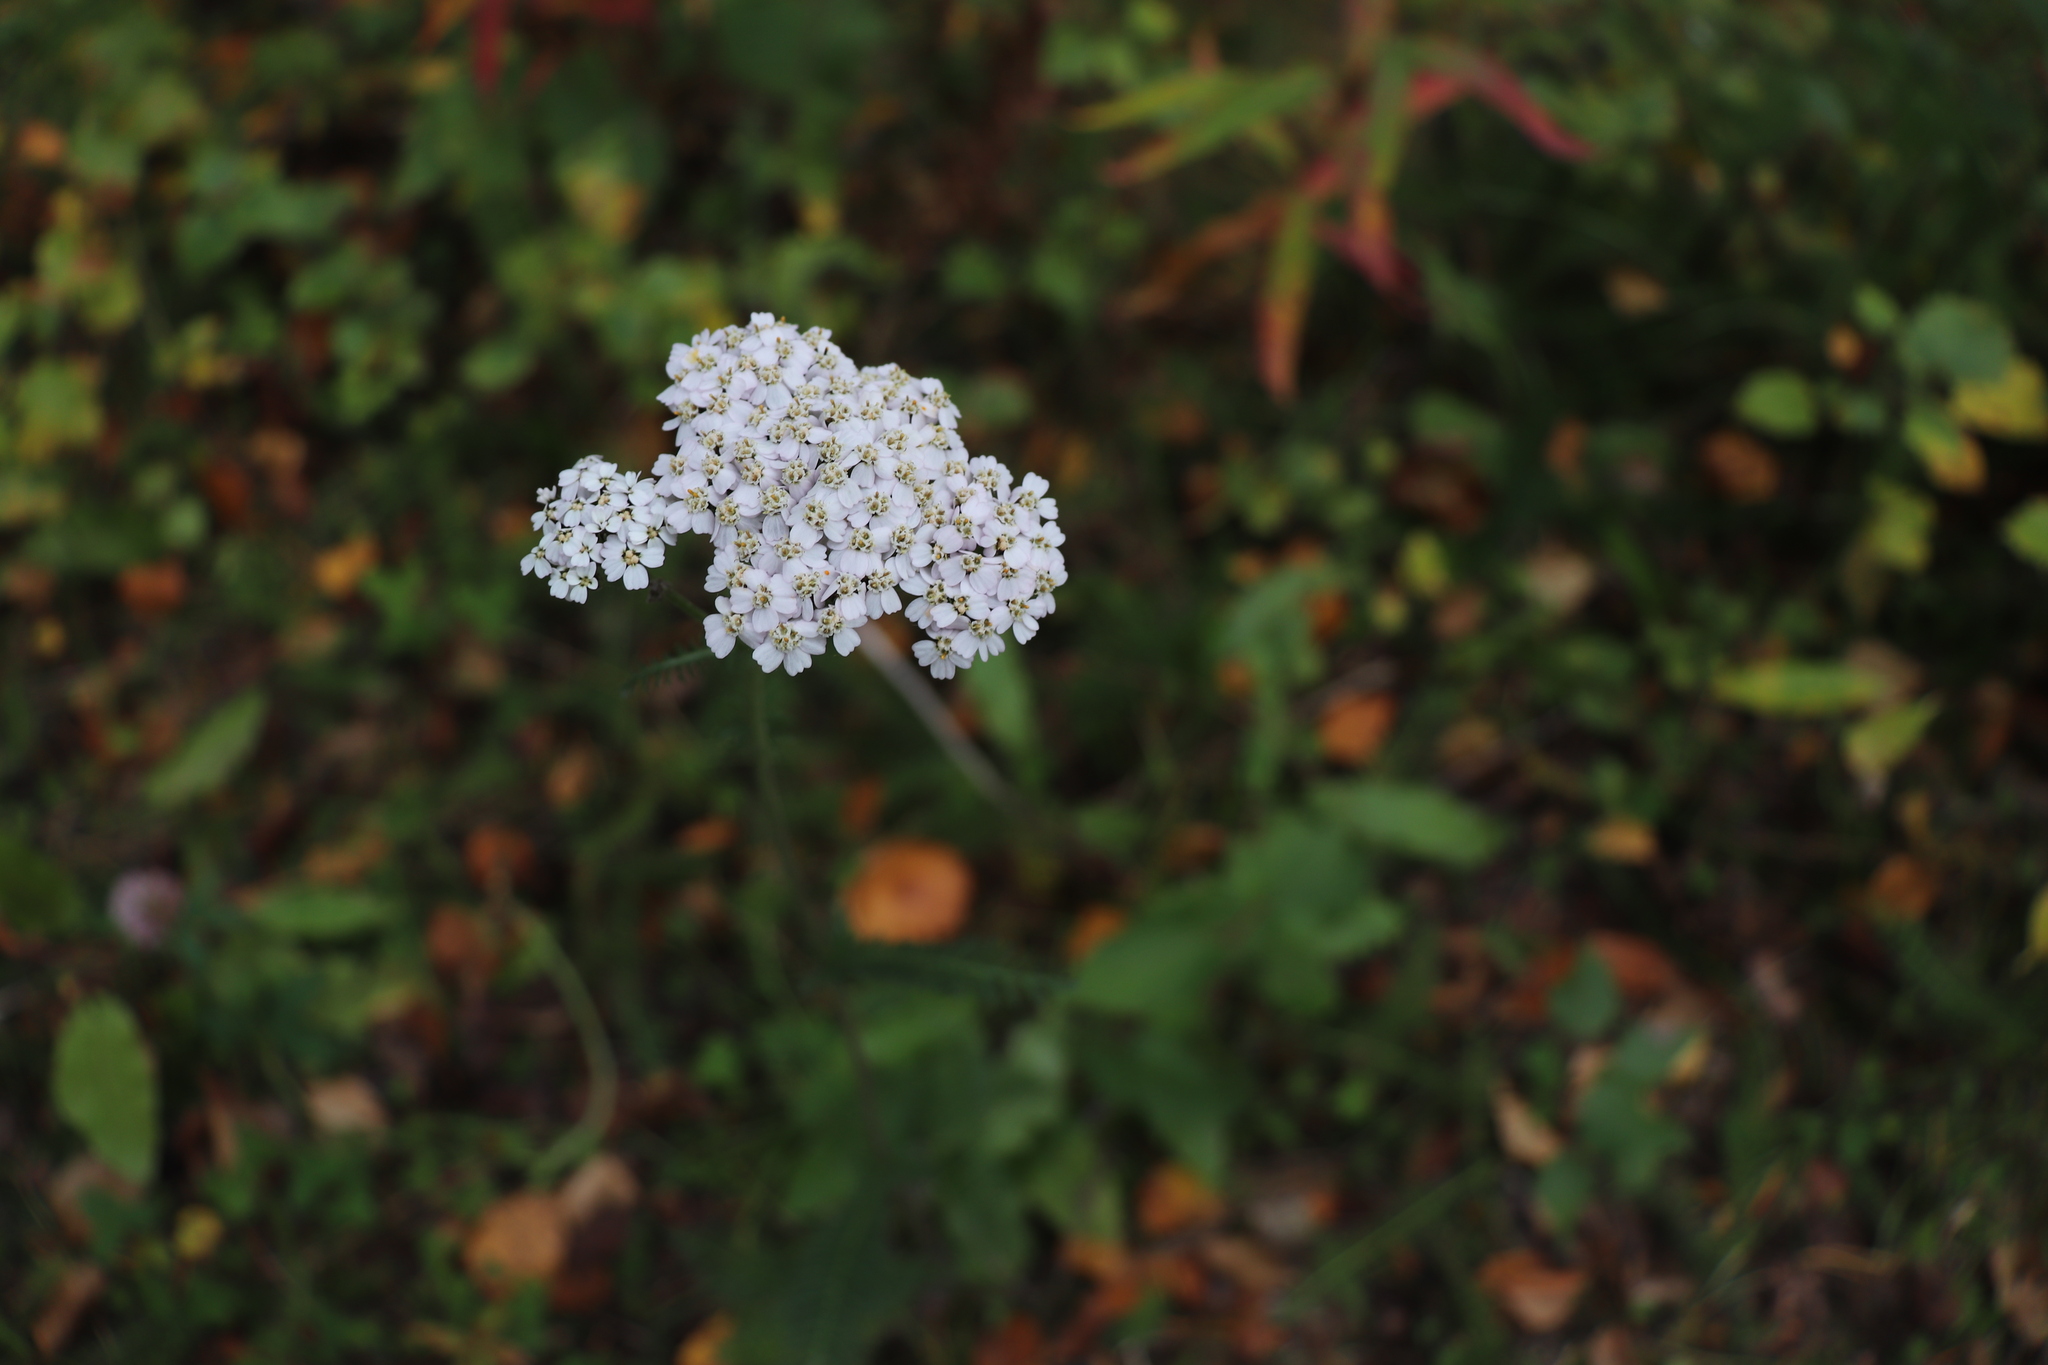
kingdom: Plantae
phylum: Tracheophyta
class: Magnoliopsida
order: Asterales
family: Asteraceae
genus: Achillea
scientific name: Achillea millefolium
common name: Yarrow
